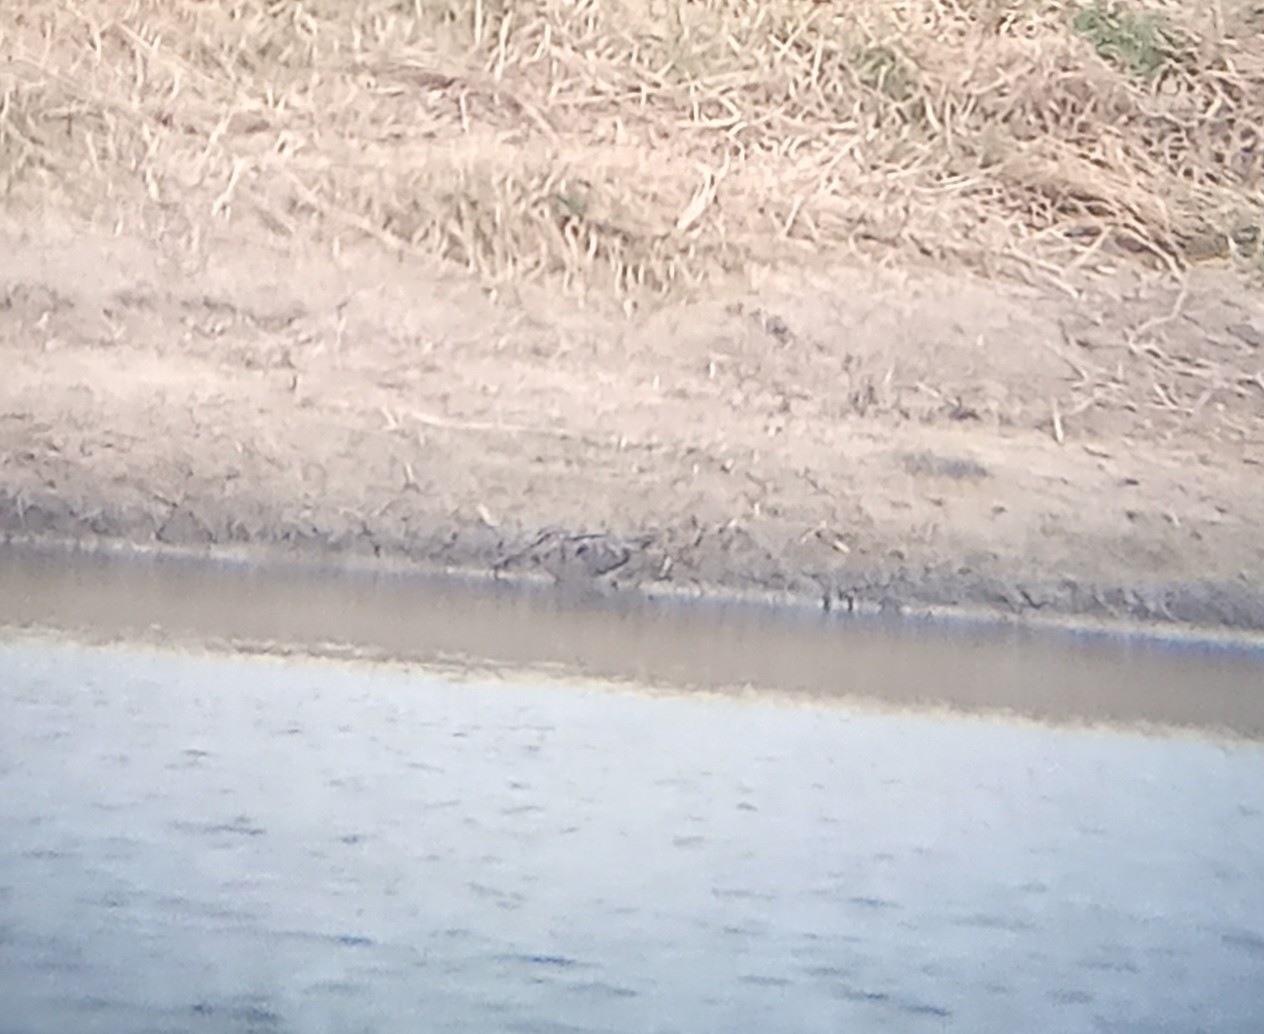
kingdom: Animalia
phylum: Chordata
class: Aves
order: Charadriiformes
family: Scolopacidae
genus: Gallinago
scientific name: Gallinago delicata
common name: Wilson's snipe
